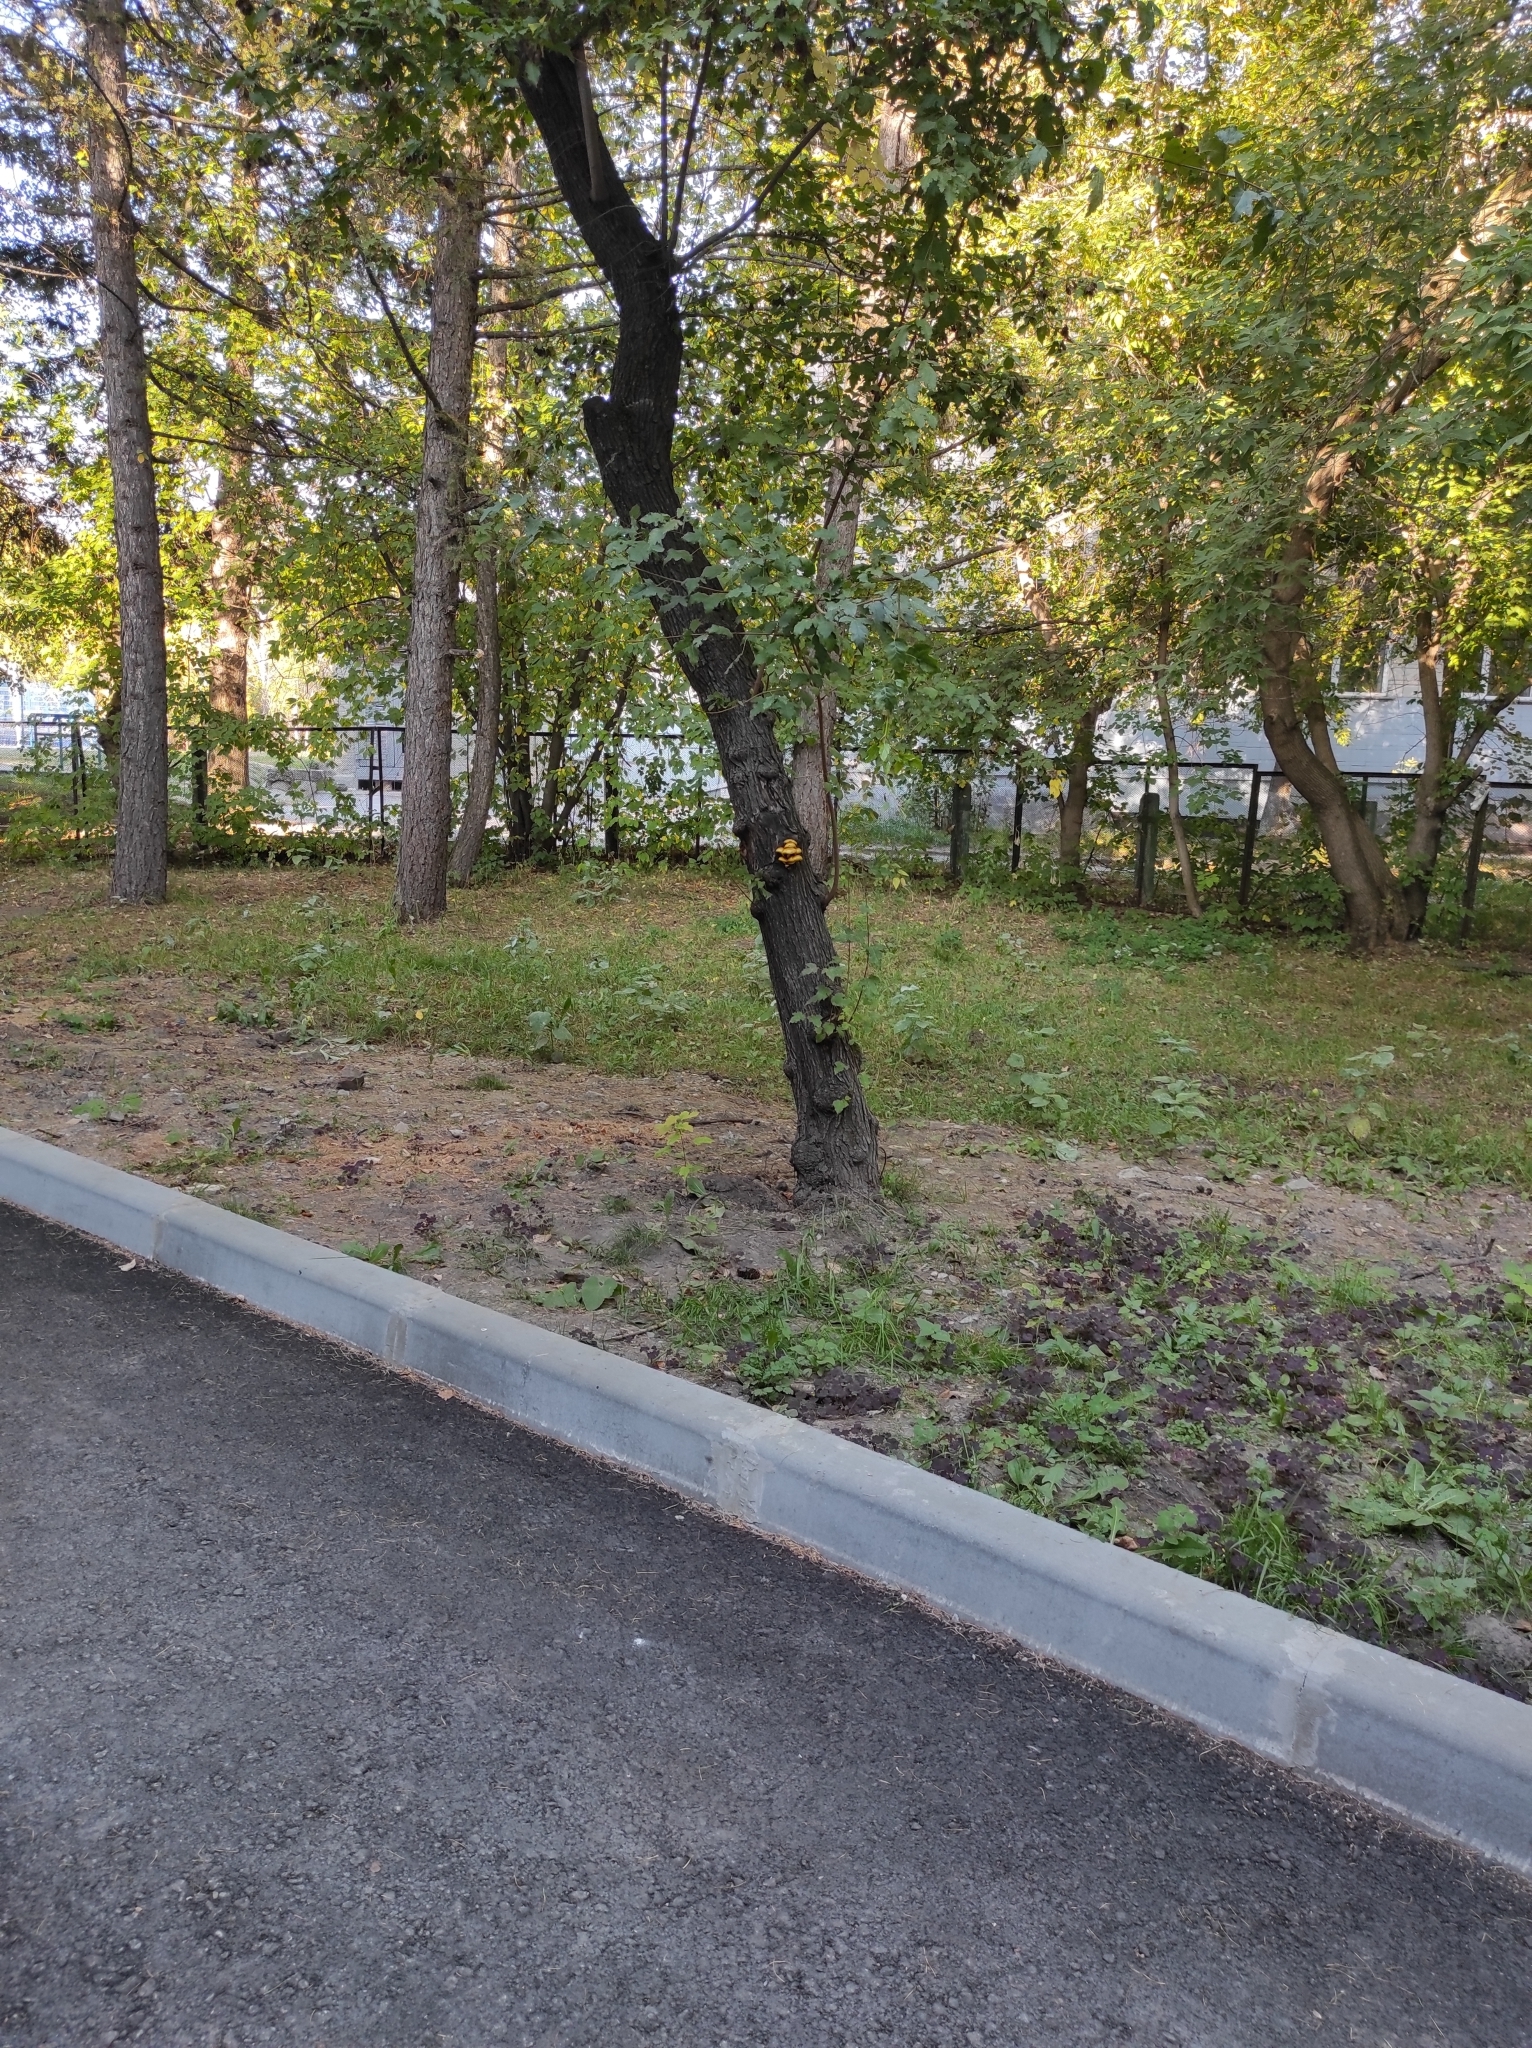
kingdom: Fungi
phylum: Basidiomycota
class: Agaricomycetes
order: Agaricales
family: Strophariaceae
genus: Pholiota
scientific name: Pholiota aurivella
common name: Golden scalycap
